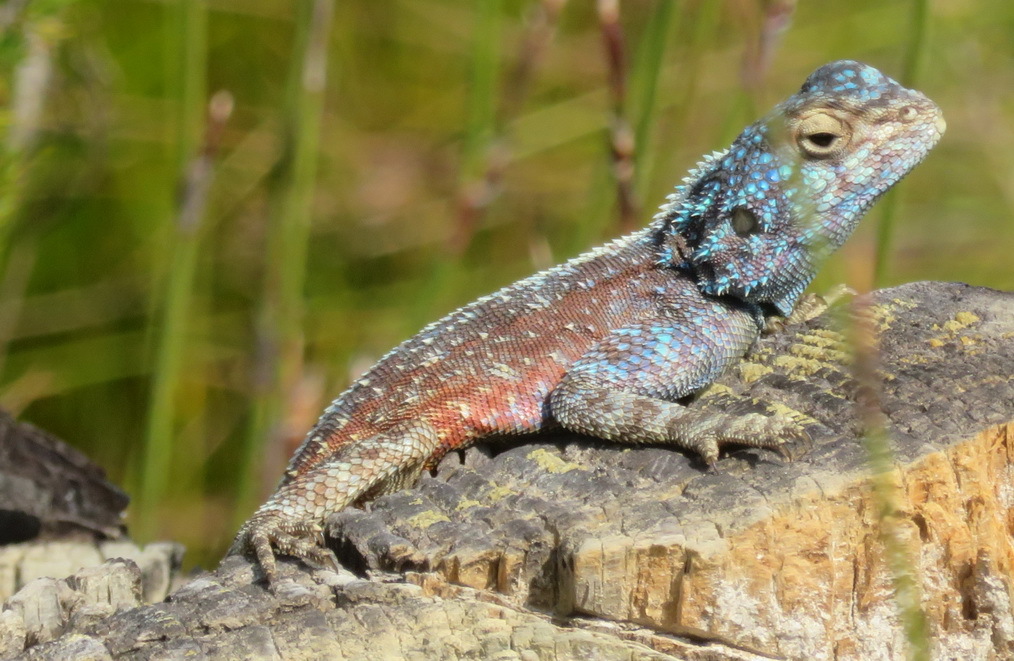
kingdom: Animalia
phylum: Chordata
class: Squamata
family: Agamidae
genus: Agama
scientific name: Agama atra
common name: Southern african rock agama
